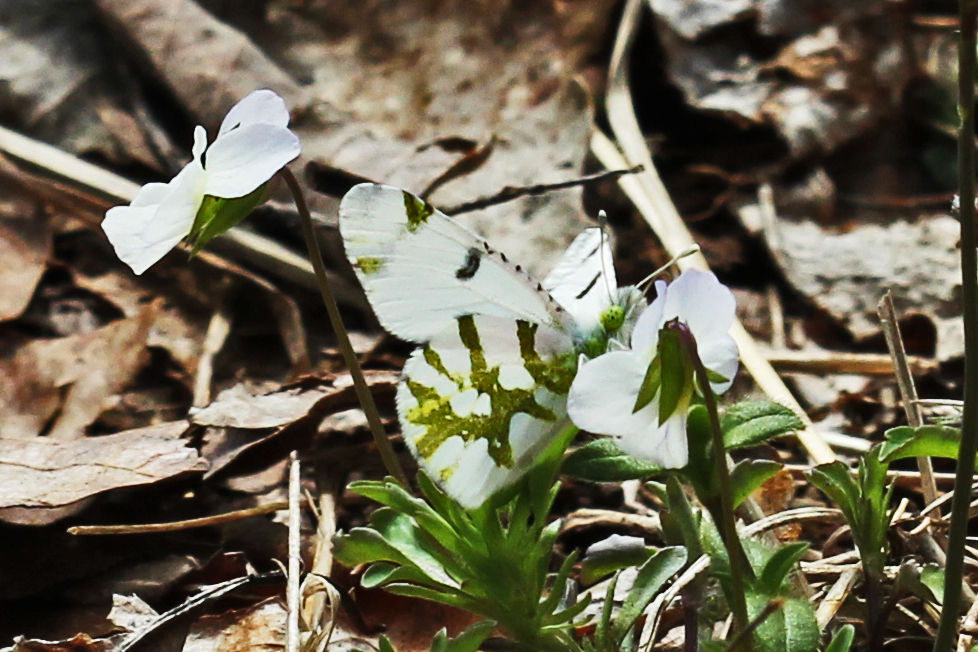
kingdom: Animalia
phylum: Arthropoda
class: Insecta
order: Lepidoptera
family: Pieridae
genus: Euchloe
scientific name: Euchloe olympia
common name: Olympia
